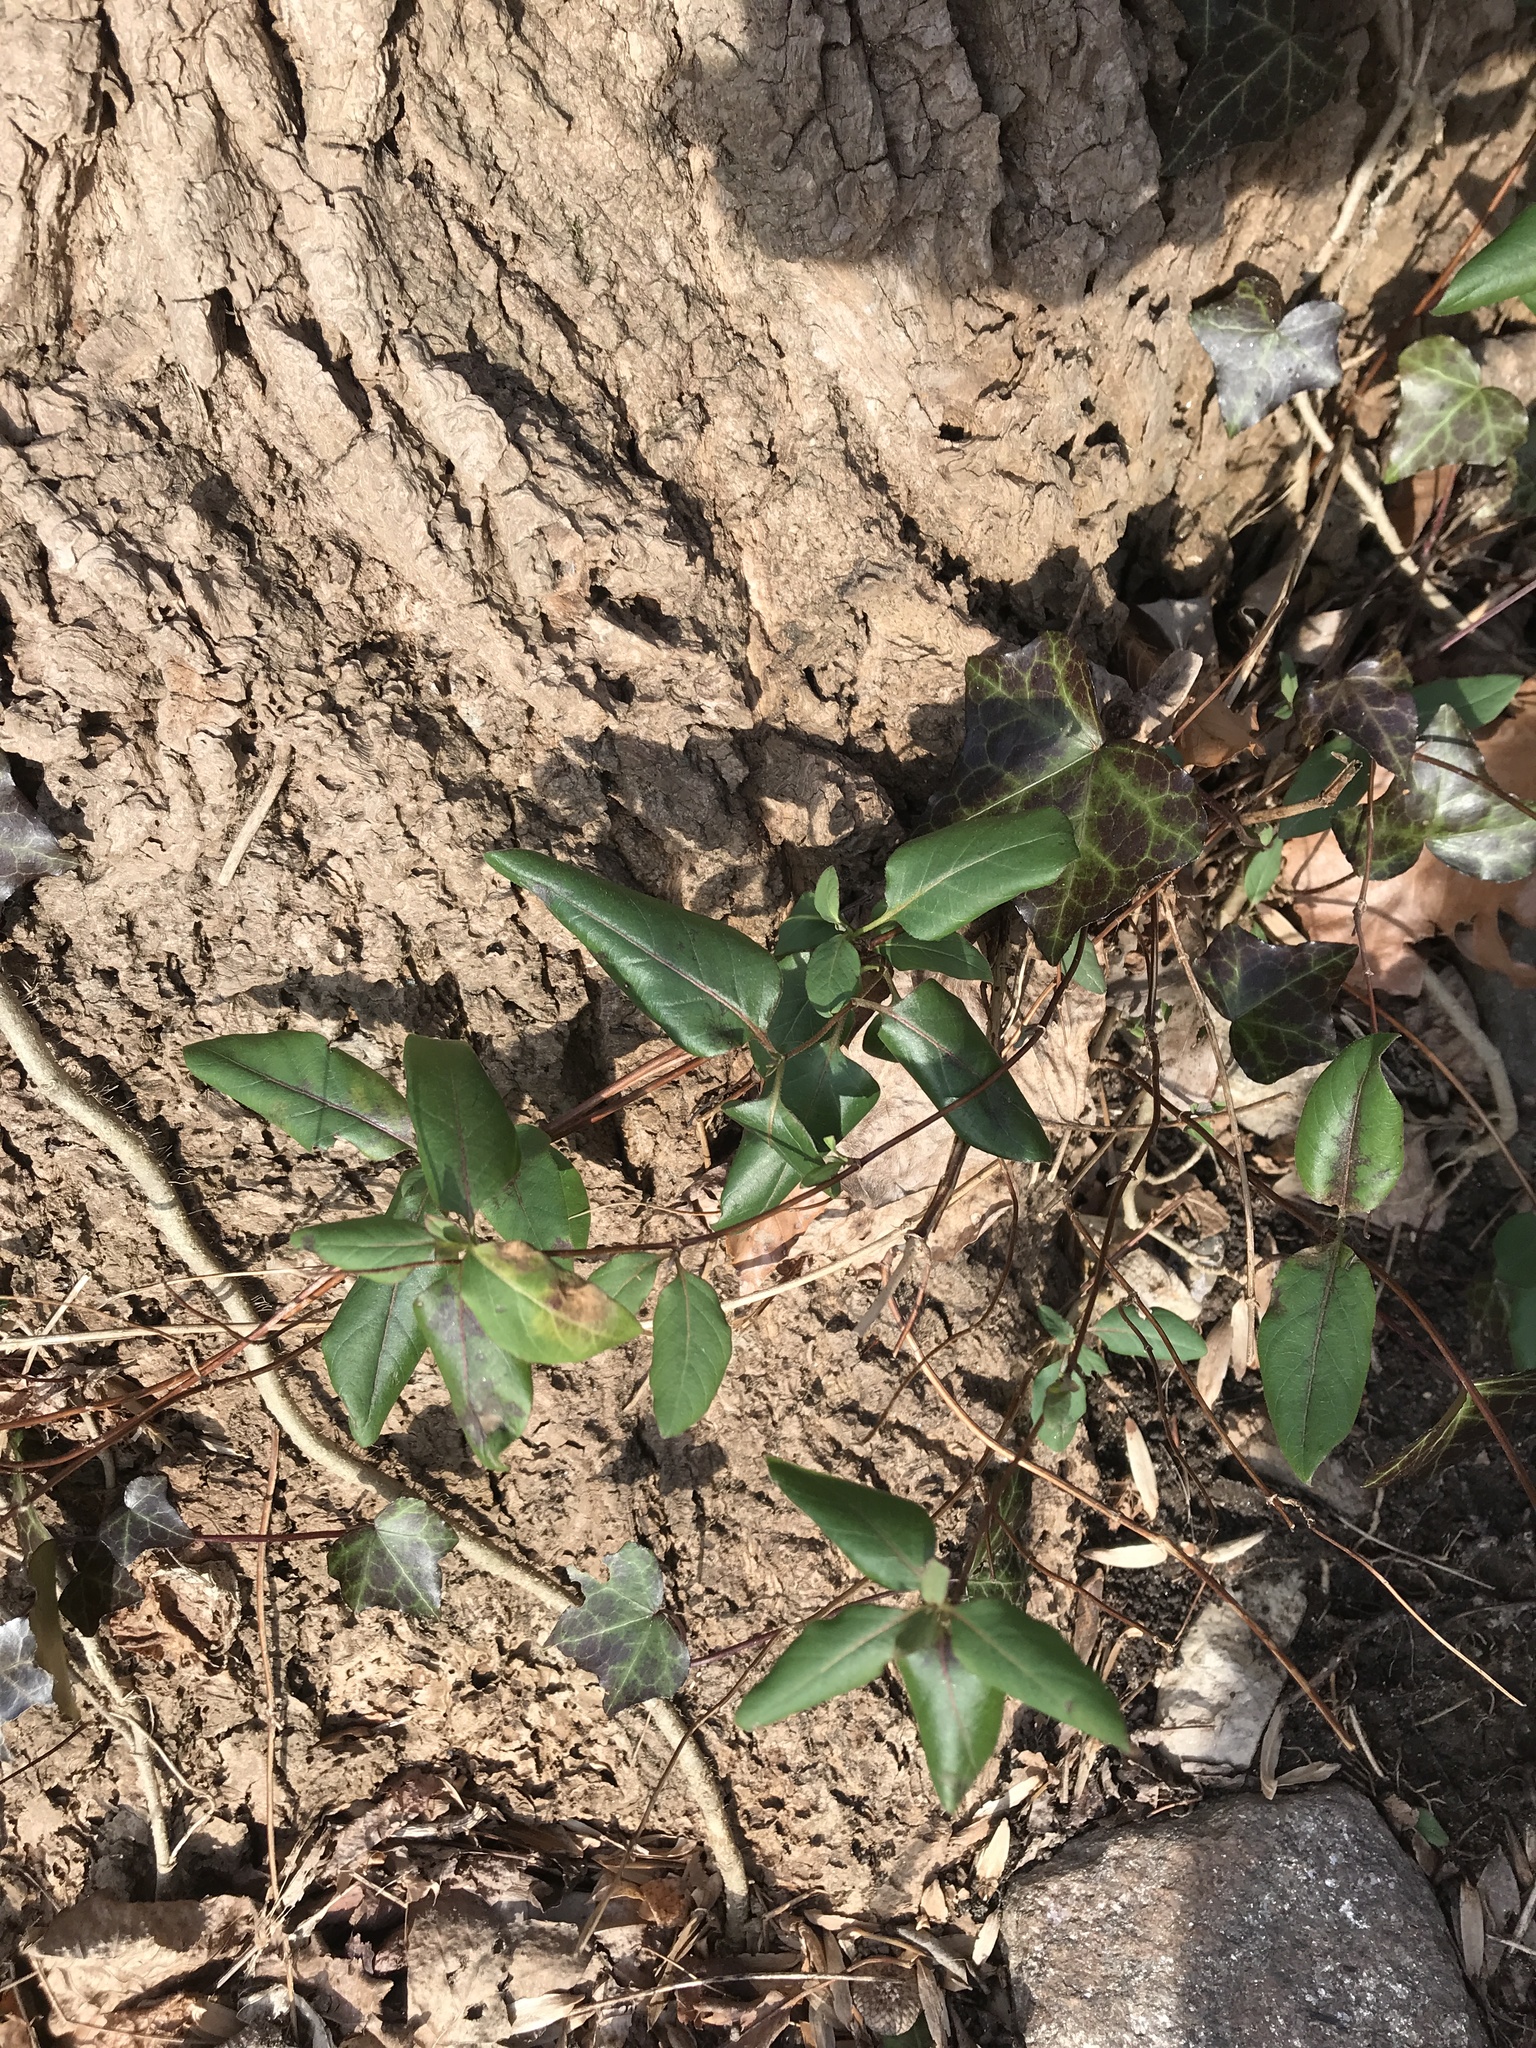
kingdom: Plantae
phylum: Tracheophyta
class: Magnoliopsida
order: Dipsacales
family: Caprifoliaceae
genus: Lonicera
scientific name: Lonicera japonica
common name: Japanese honeysuckle
